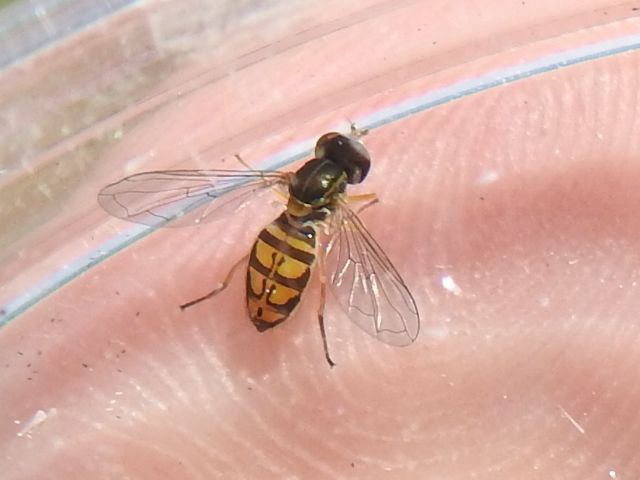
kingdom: Animalia
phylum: Arthropoda
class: Insecta
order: Diptera
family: Syrphidae
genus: Toxomerus
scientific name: Toxomerus marginatus
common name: Syrphid fly
